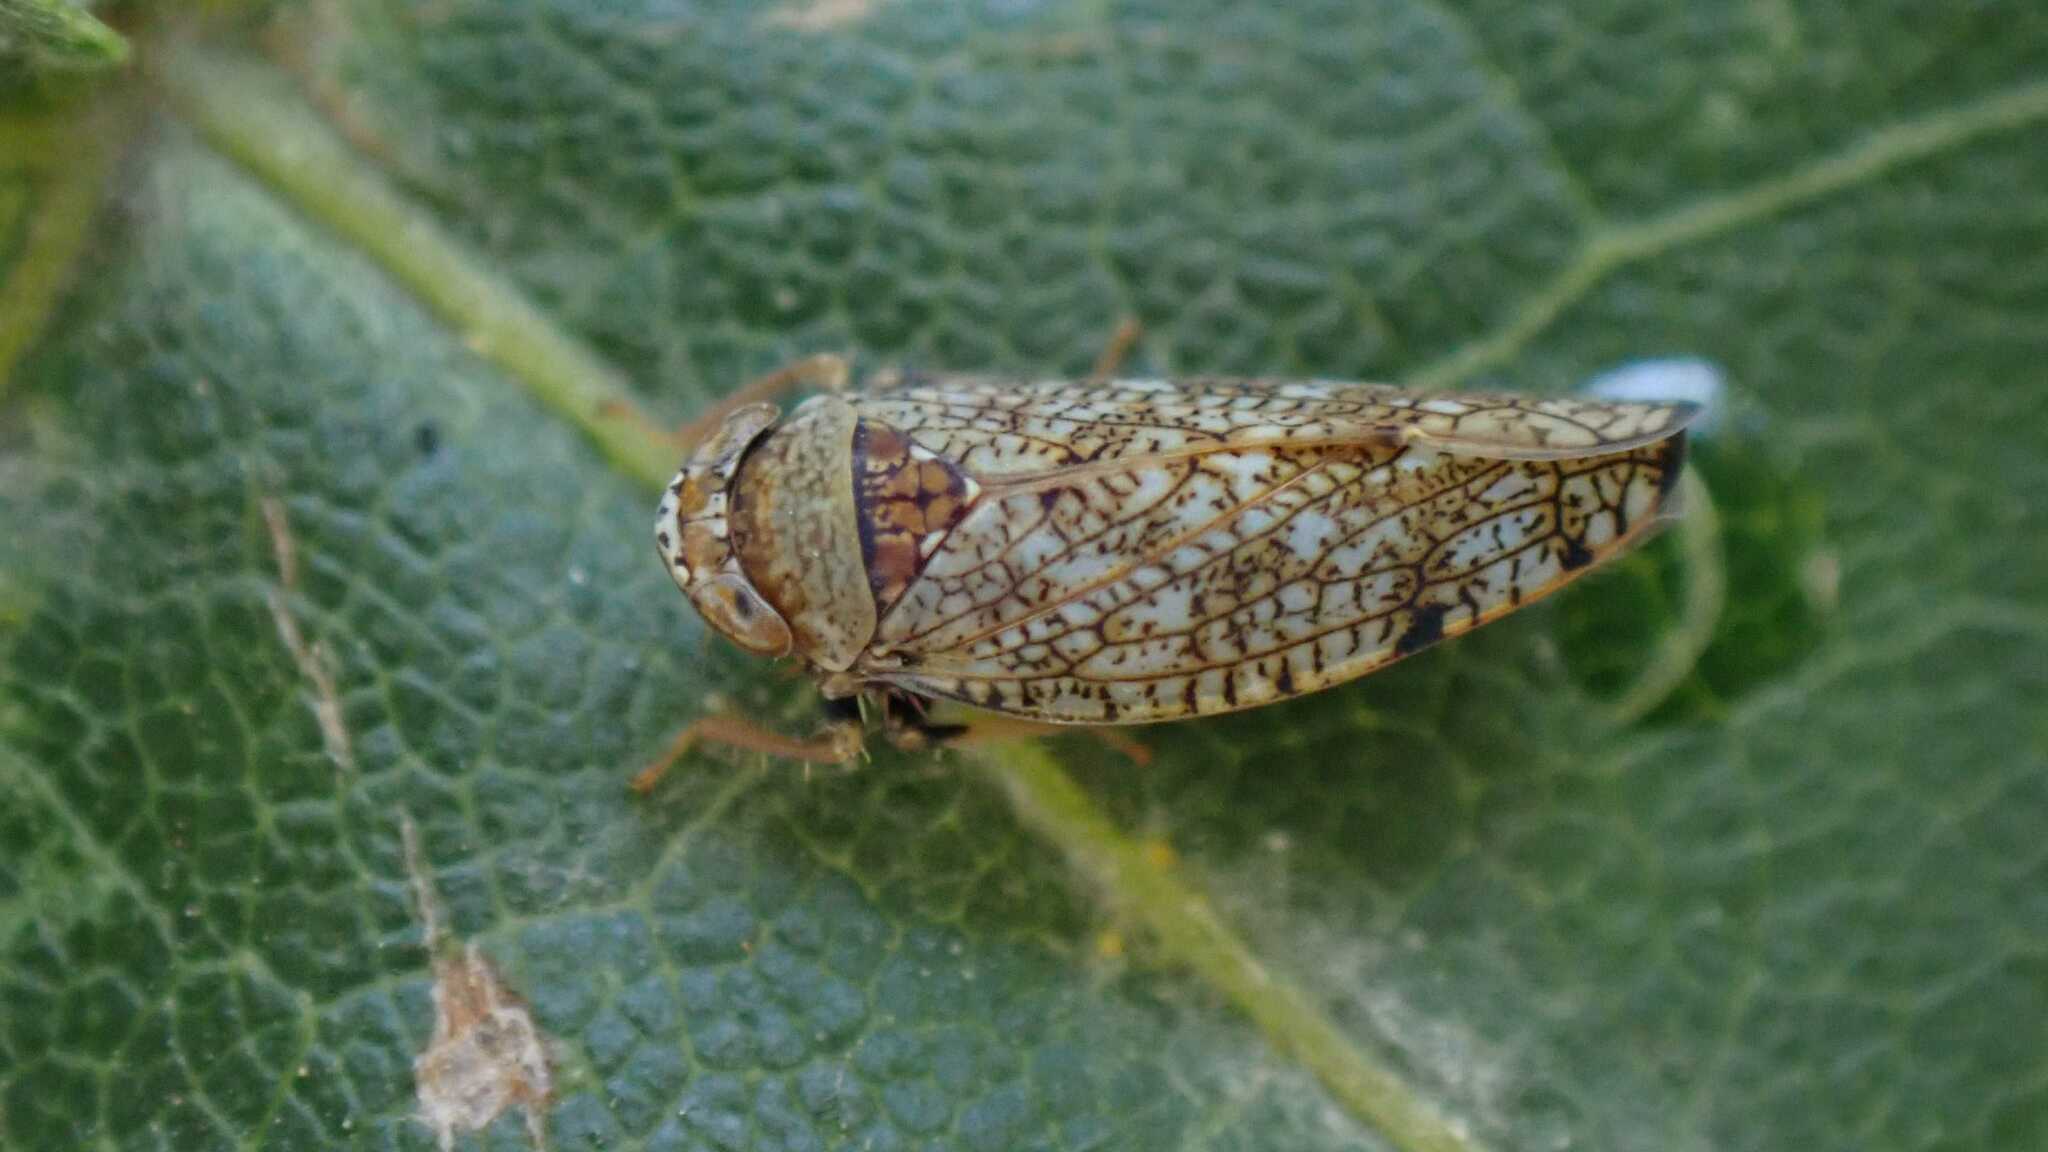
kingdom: Animalia
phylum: Arthropoda
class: Insecta
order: Hemiptera
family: Cicadellidae
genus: Orientus
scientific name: Orientus ishidae
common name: Japanese leafhopper
